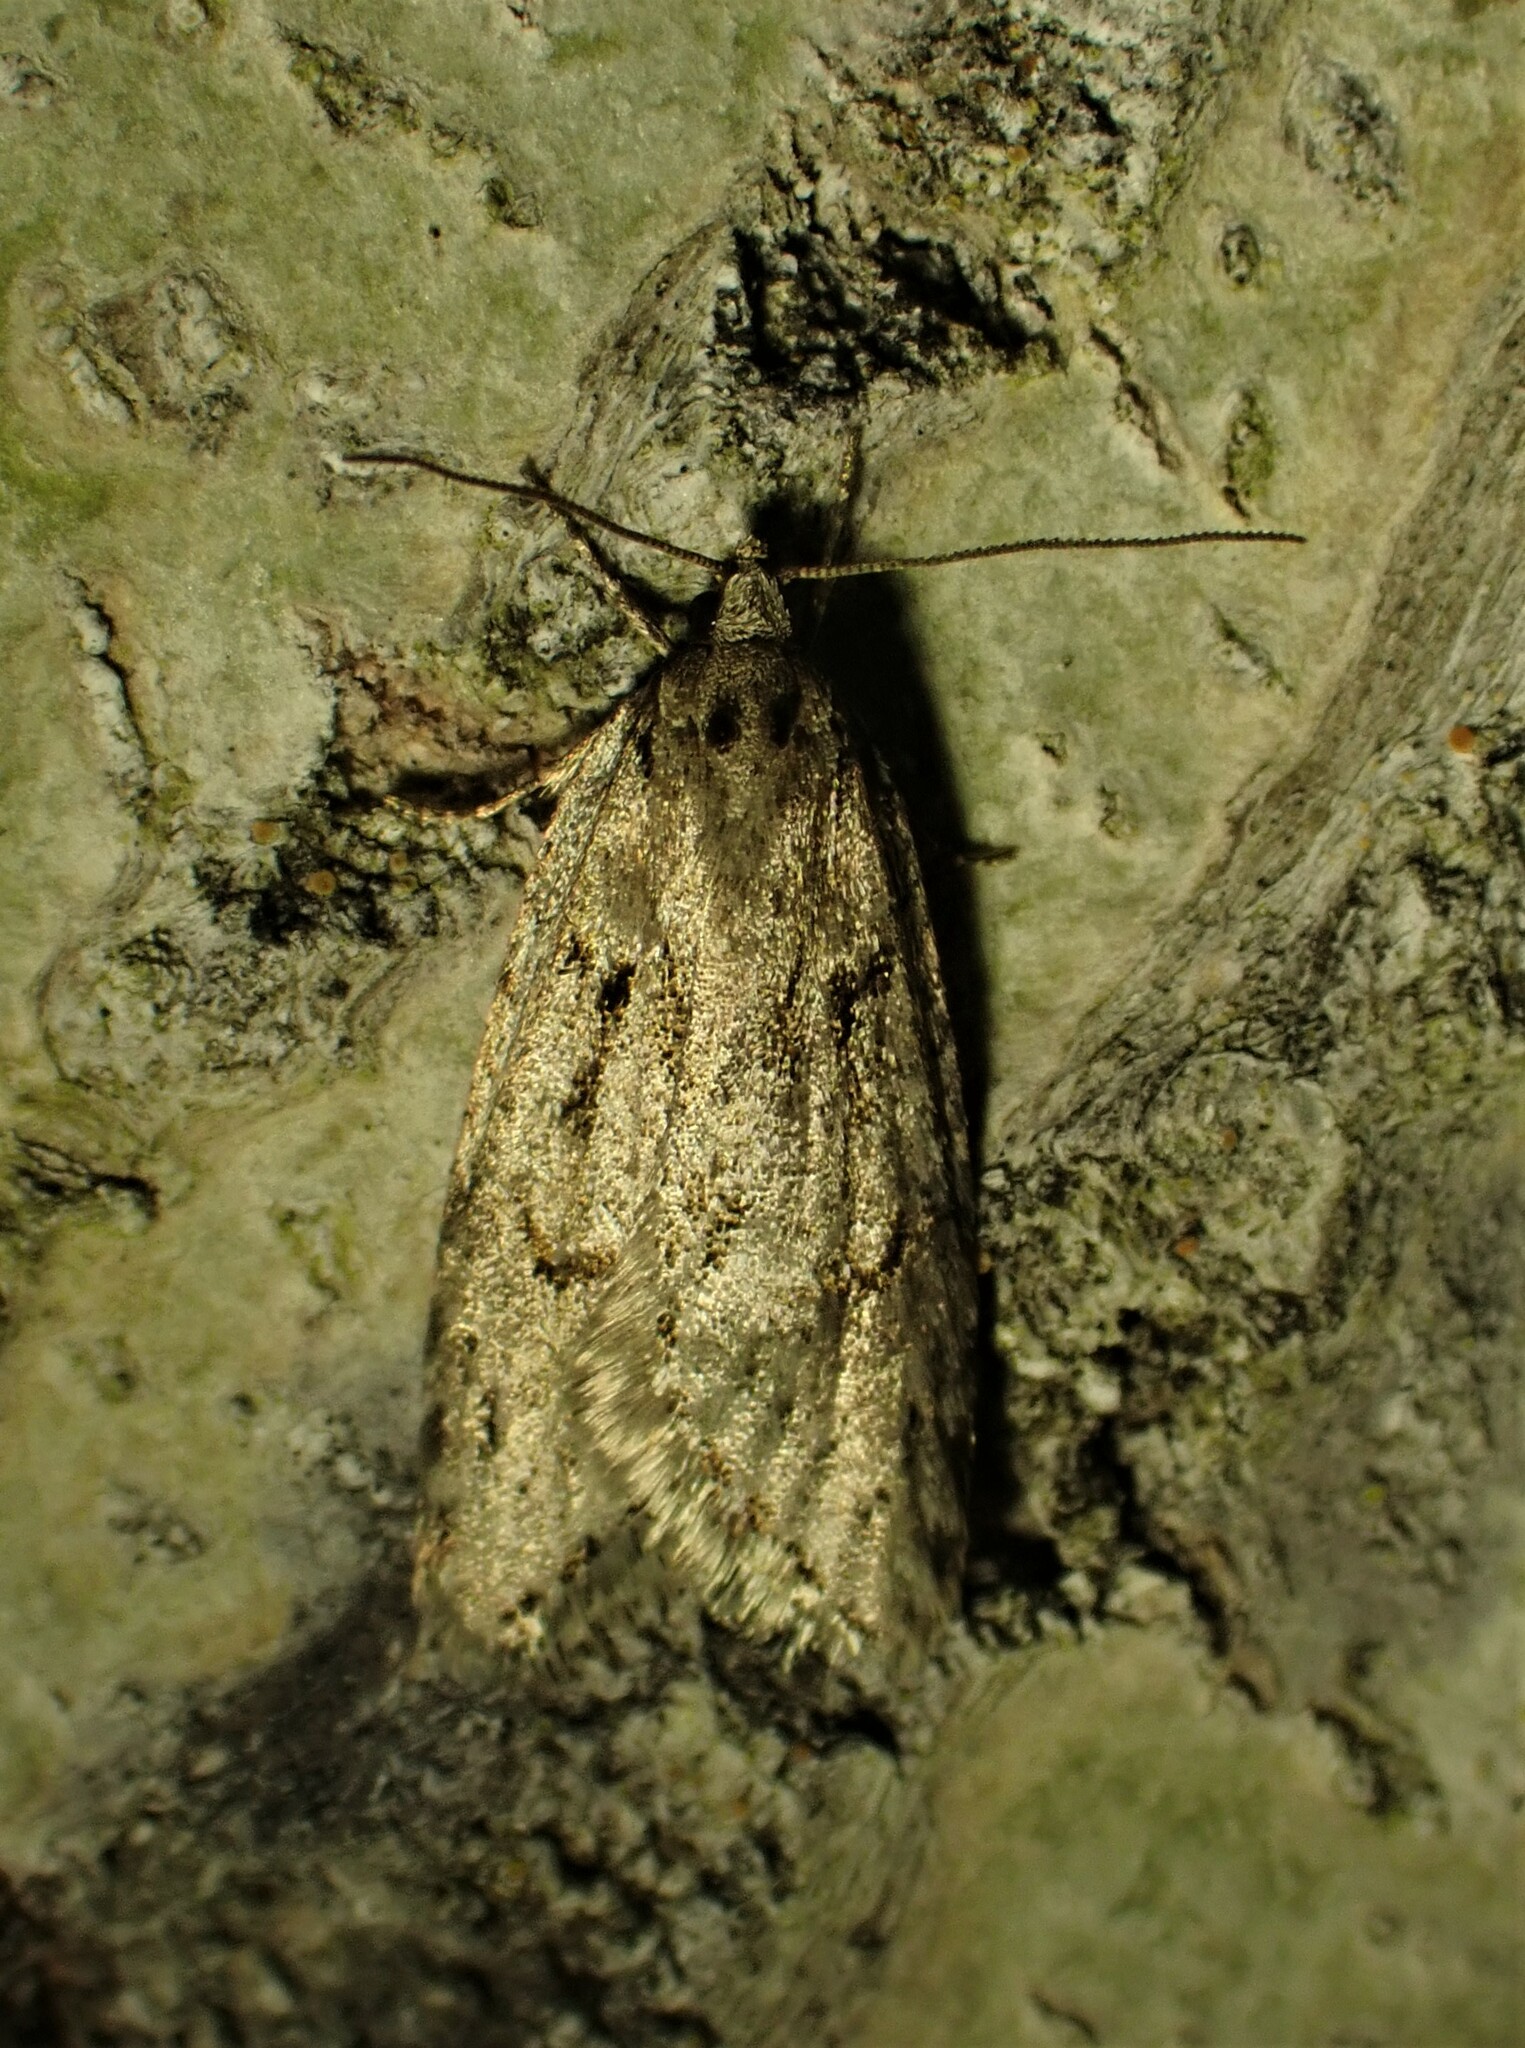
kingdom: Animalia
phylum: Arthropoda
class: Insecta
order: Lepidoptera
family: Depressariidae
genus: Semioscopis
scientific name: Semioscopis megamicrella
